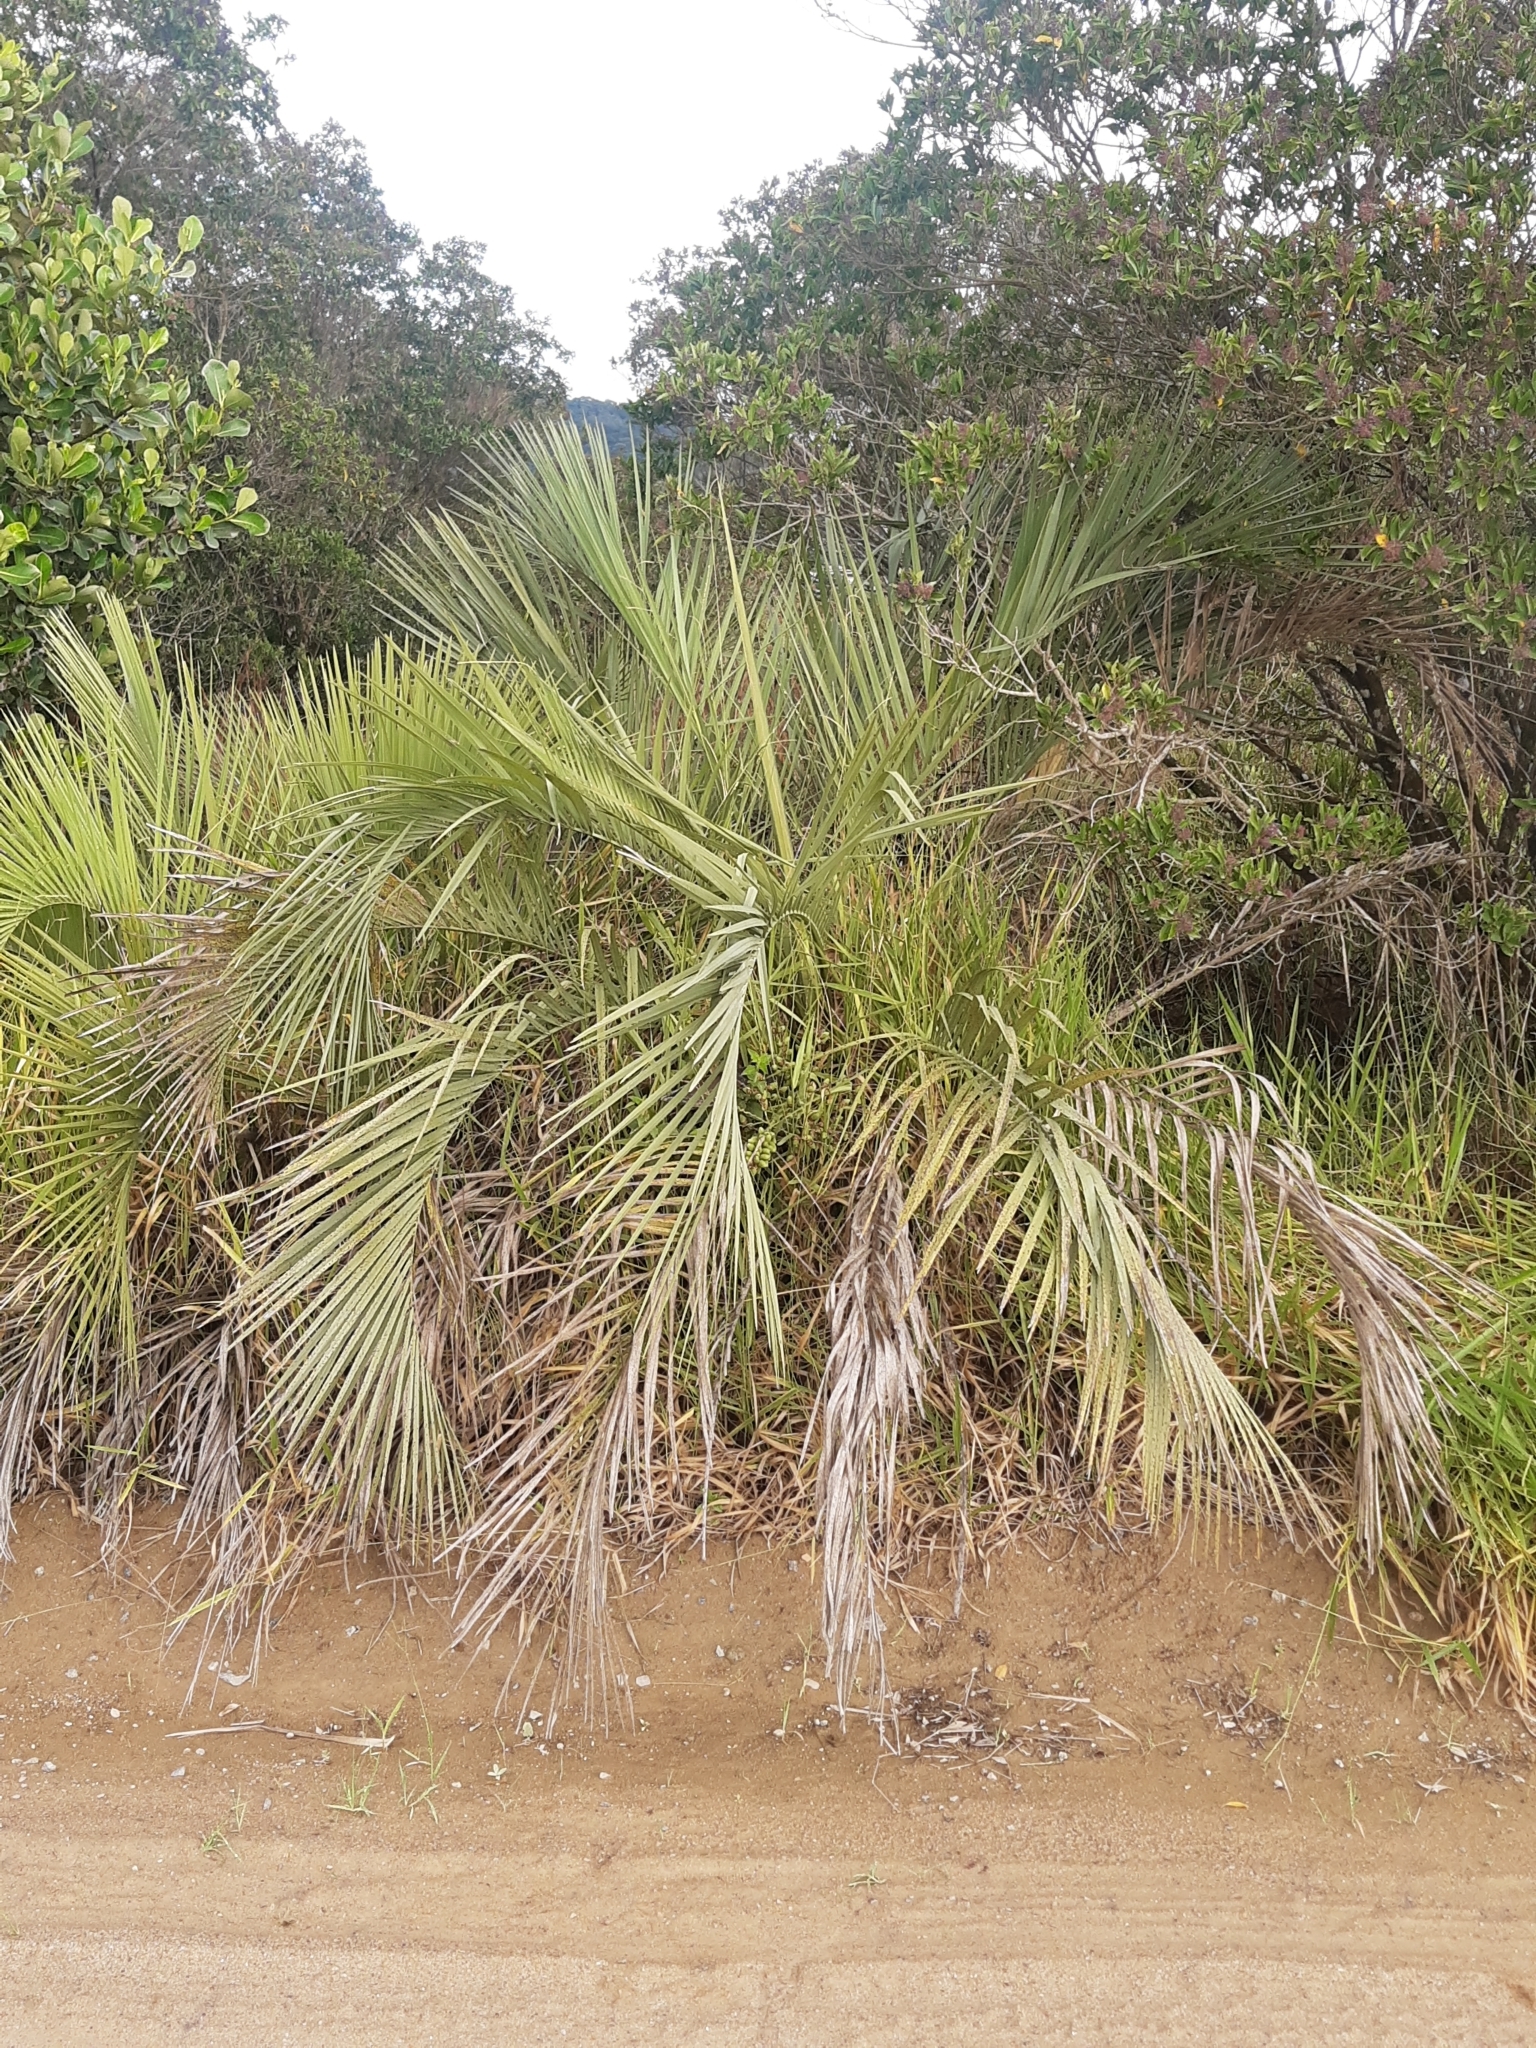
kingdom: Plantae
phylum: Tracheophyta
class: Liliopsida
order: Arecales
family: Arecaceae
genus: Butia
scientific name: Butia catarinensis
